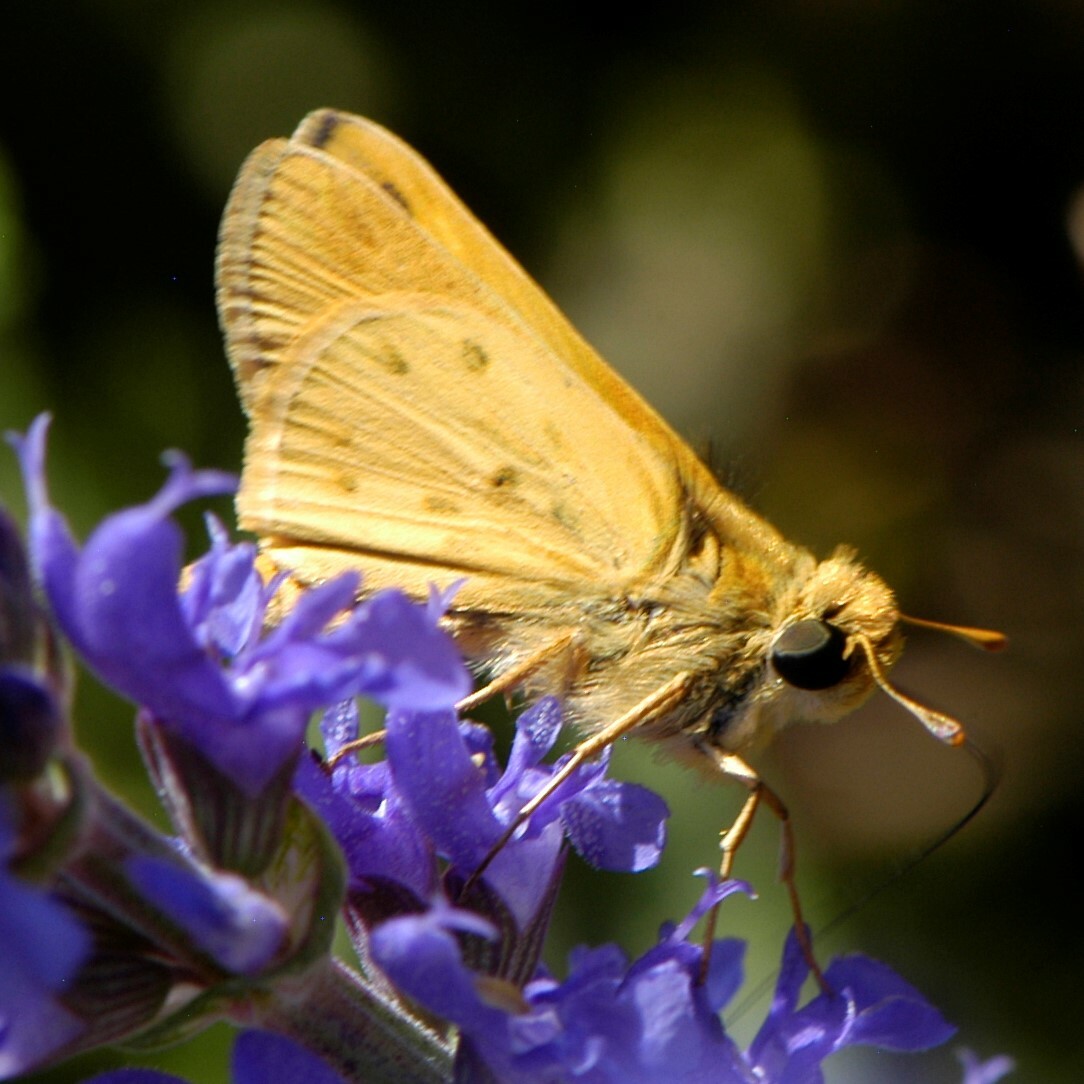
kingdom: Animalia
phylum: Arthropoda
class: Insecta
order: Lepidoptera
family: Hesperiidae
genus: Hylephila
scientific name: Hylephila phyleus
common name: Fiery skipper
